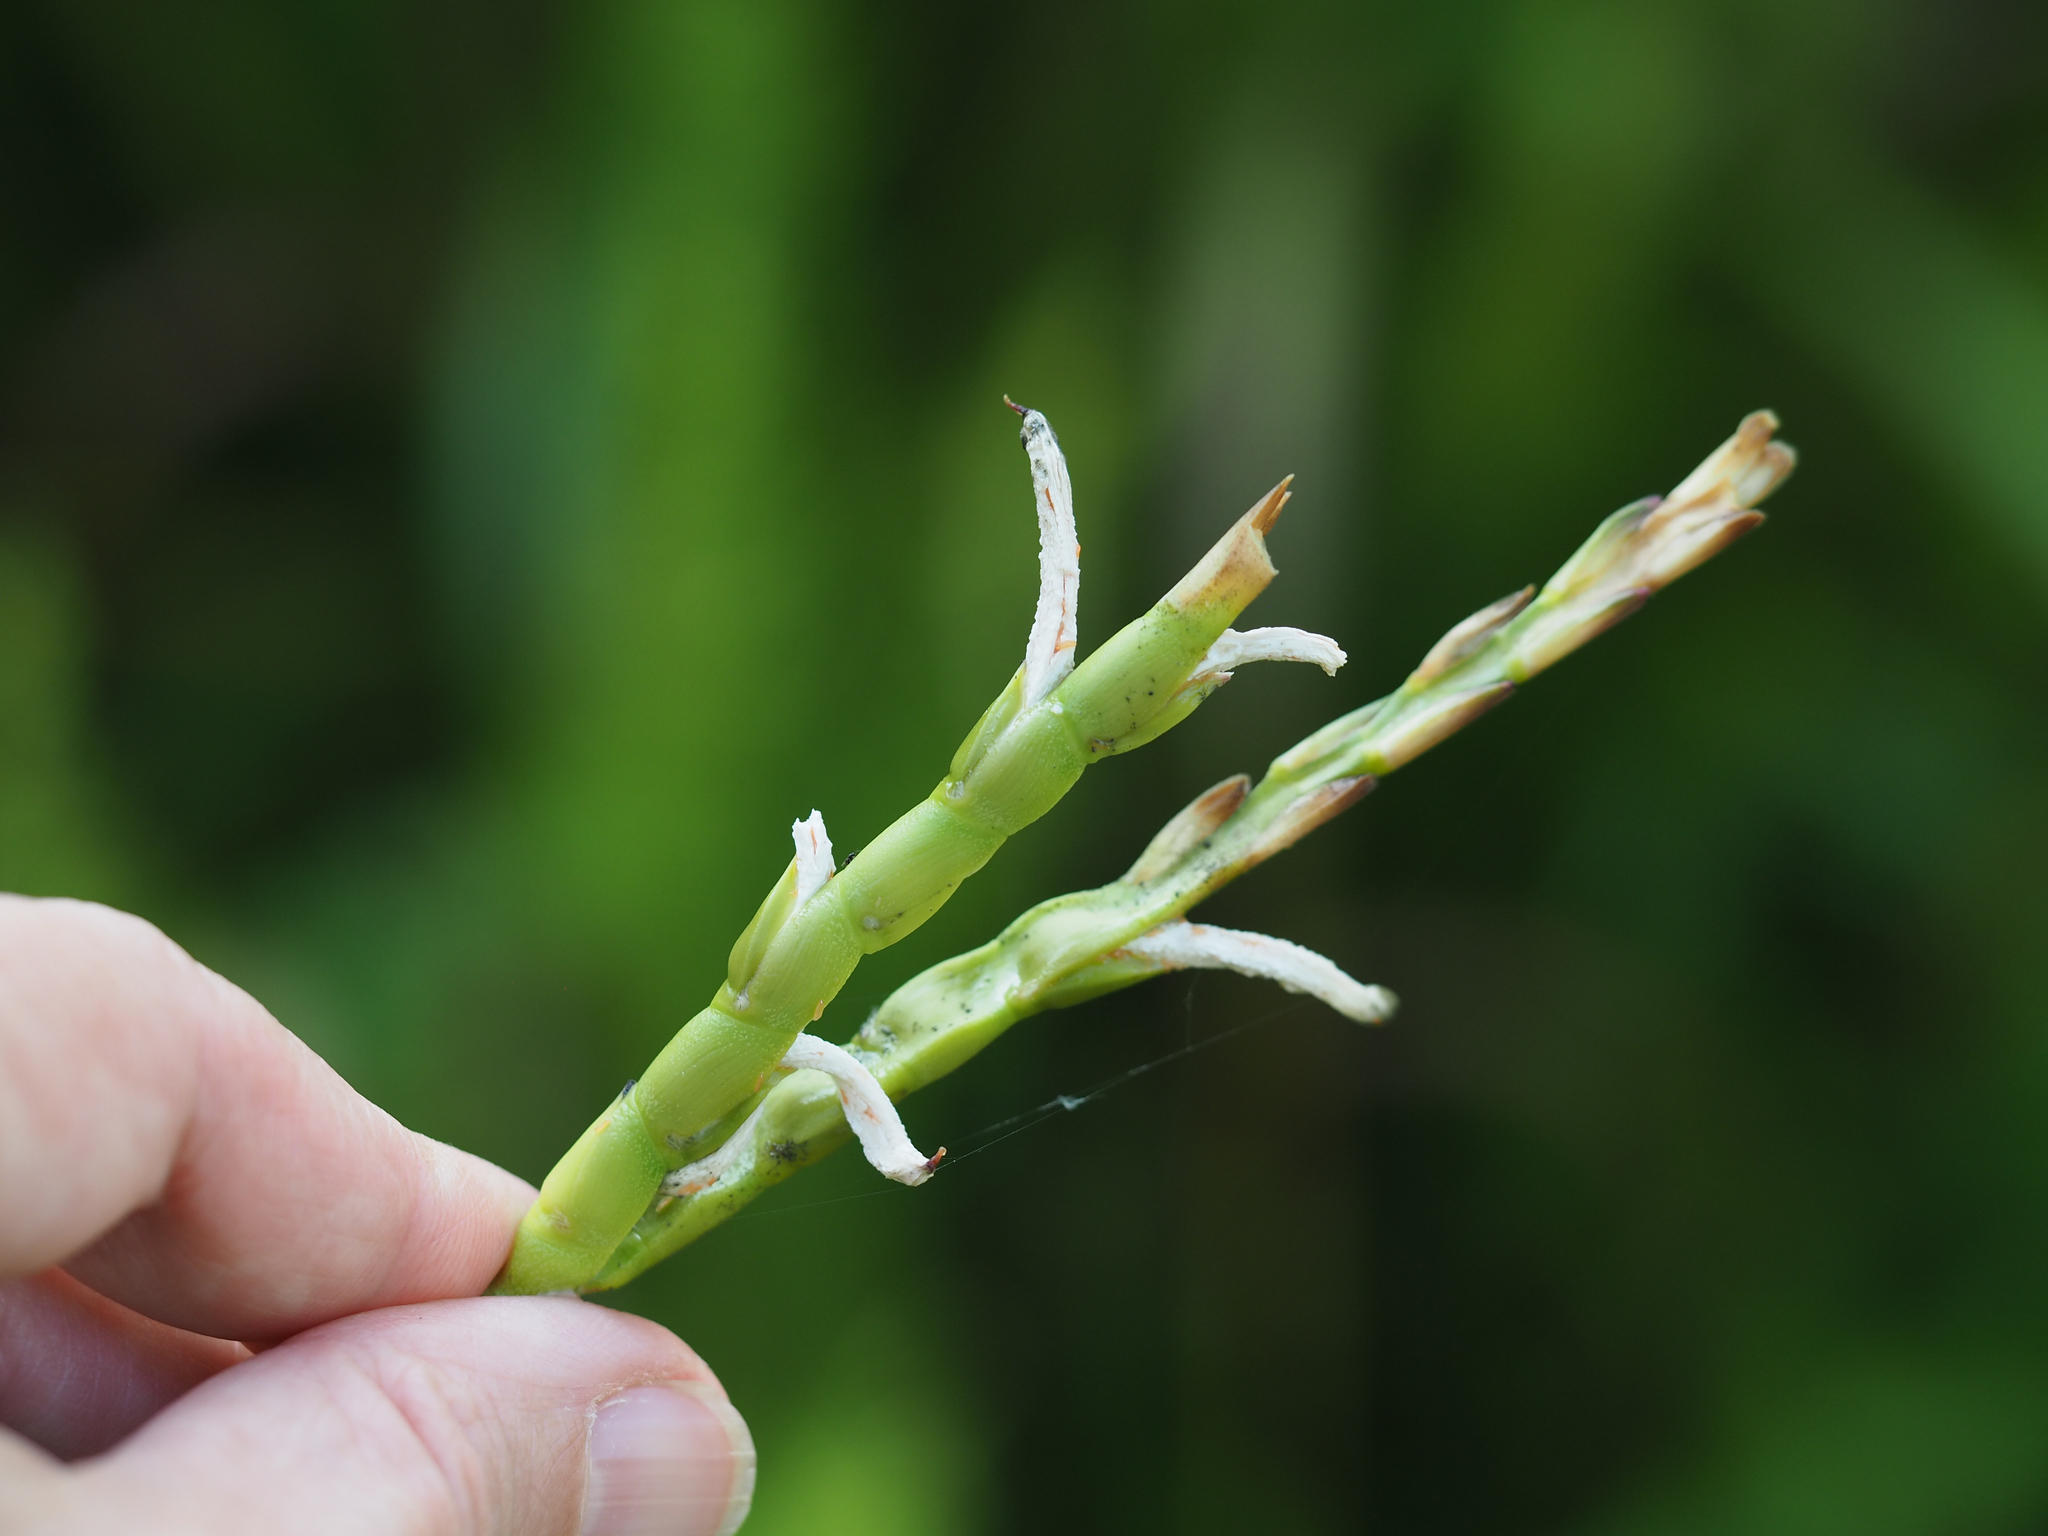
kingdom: Plantae
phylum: Tracheophyta
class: Liliopsida
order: Poales
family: Poaceae
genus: Tripsacum
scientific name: Tripsacum dactyloides
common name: Buffalo-grass
